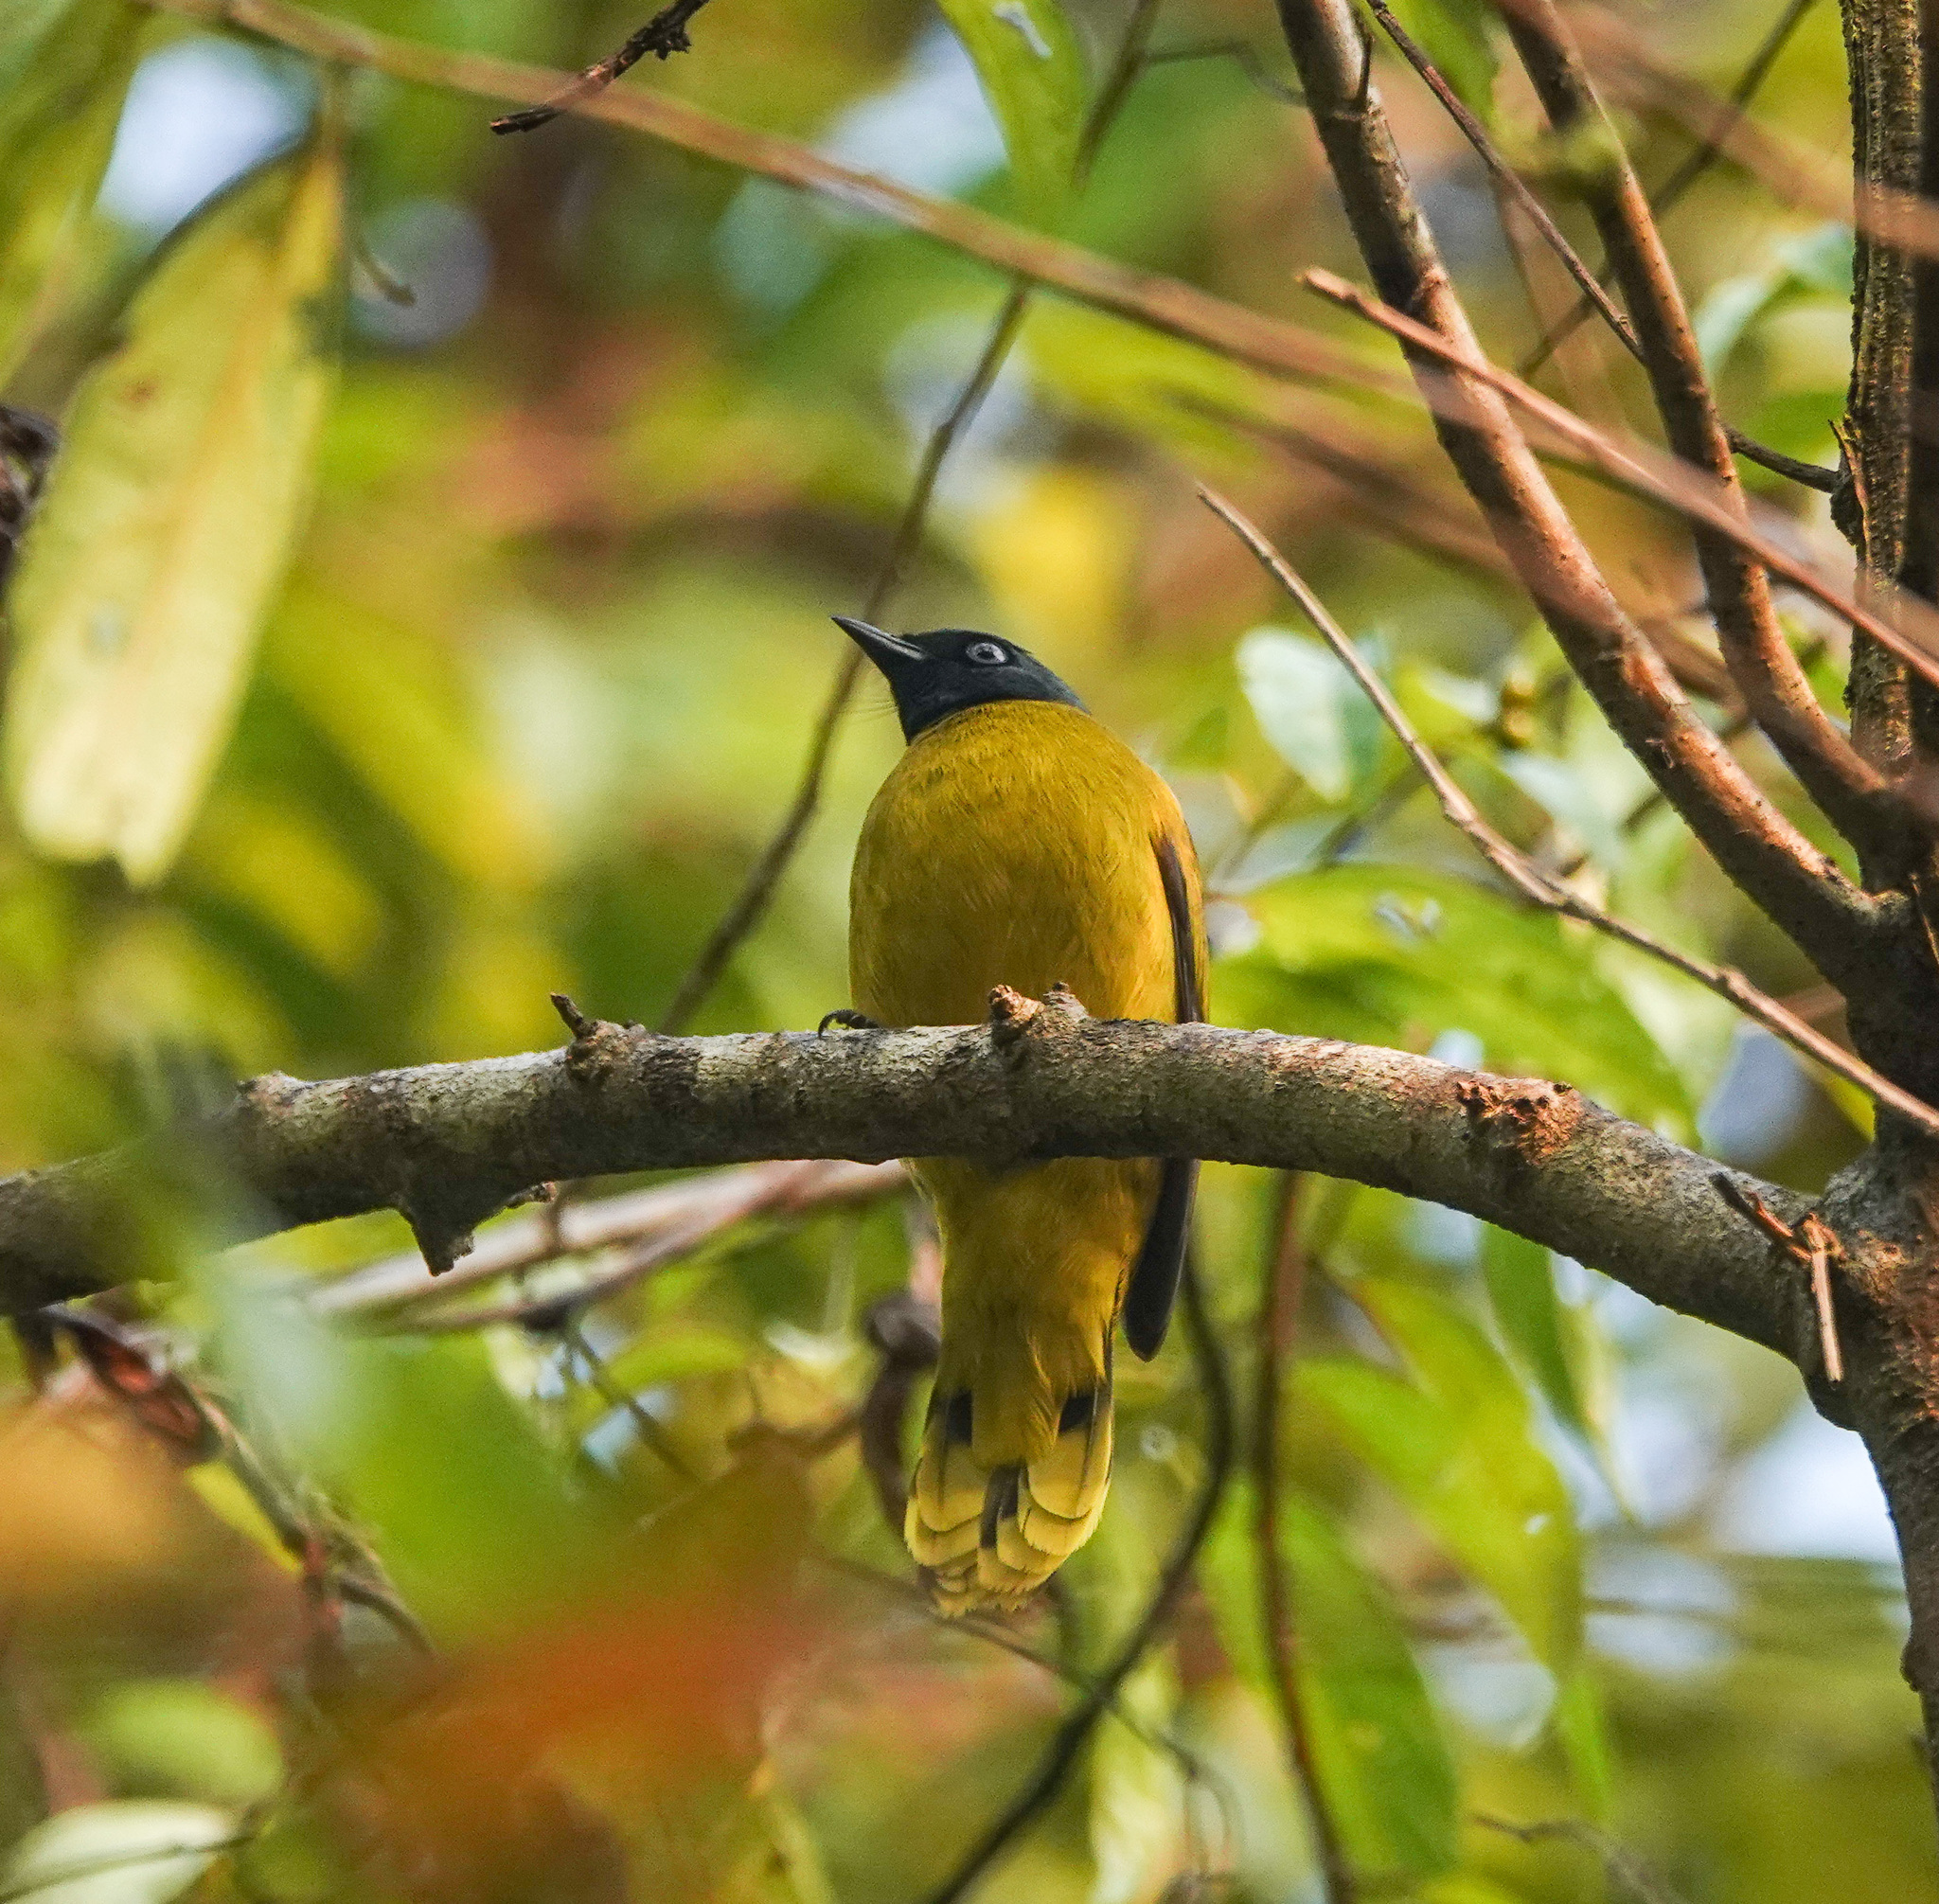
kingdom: Animalia
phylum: Chordata
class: Aves
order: Passeriformes
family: Pycnonotidae
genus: Microtarsus
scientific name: Microtarsus
